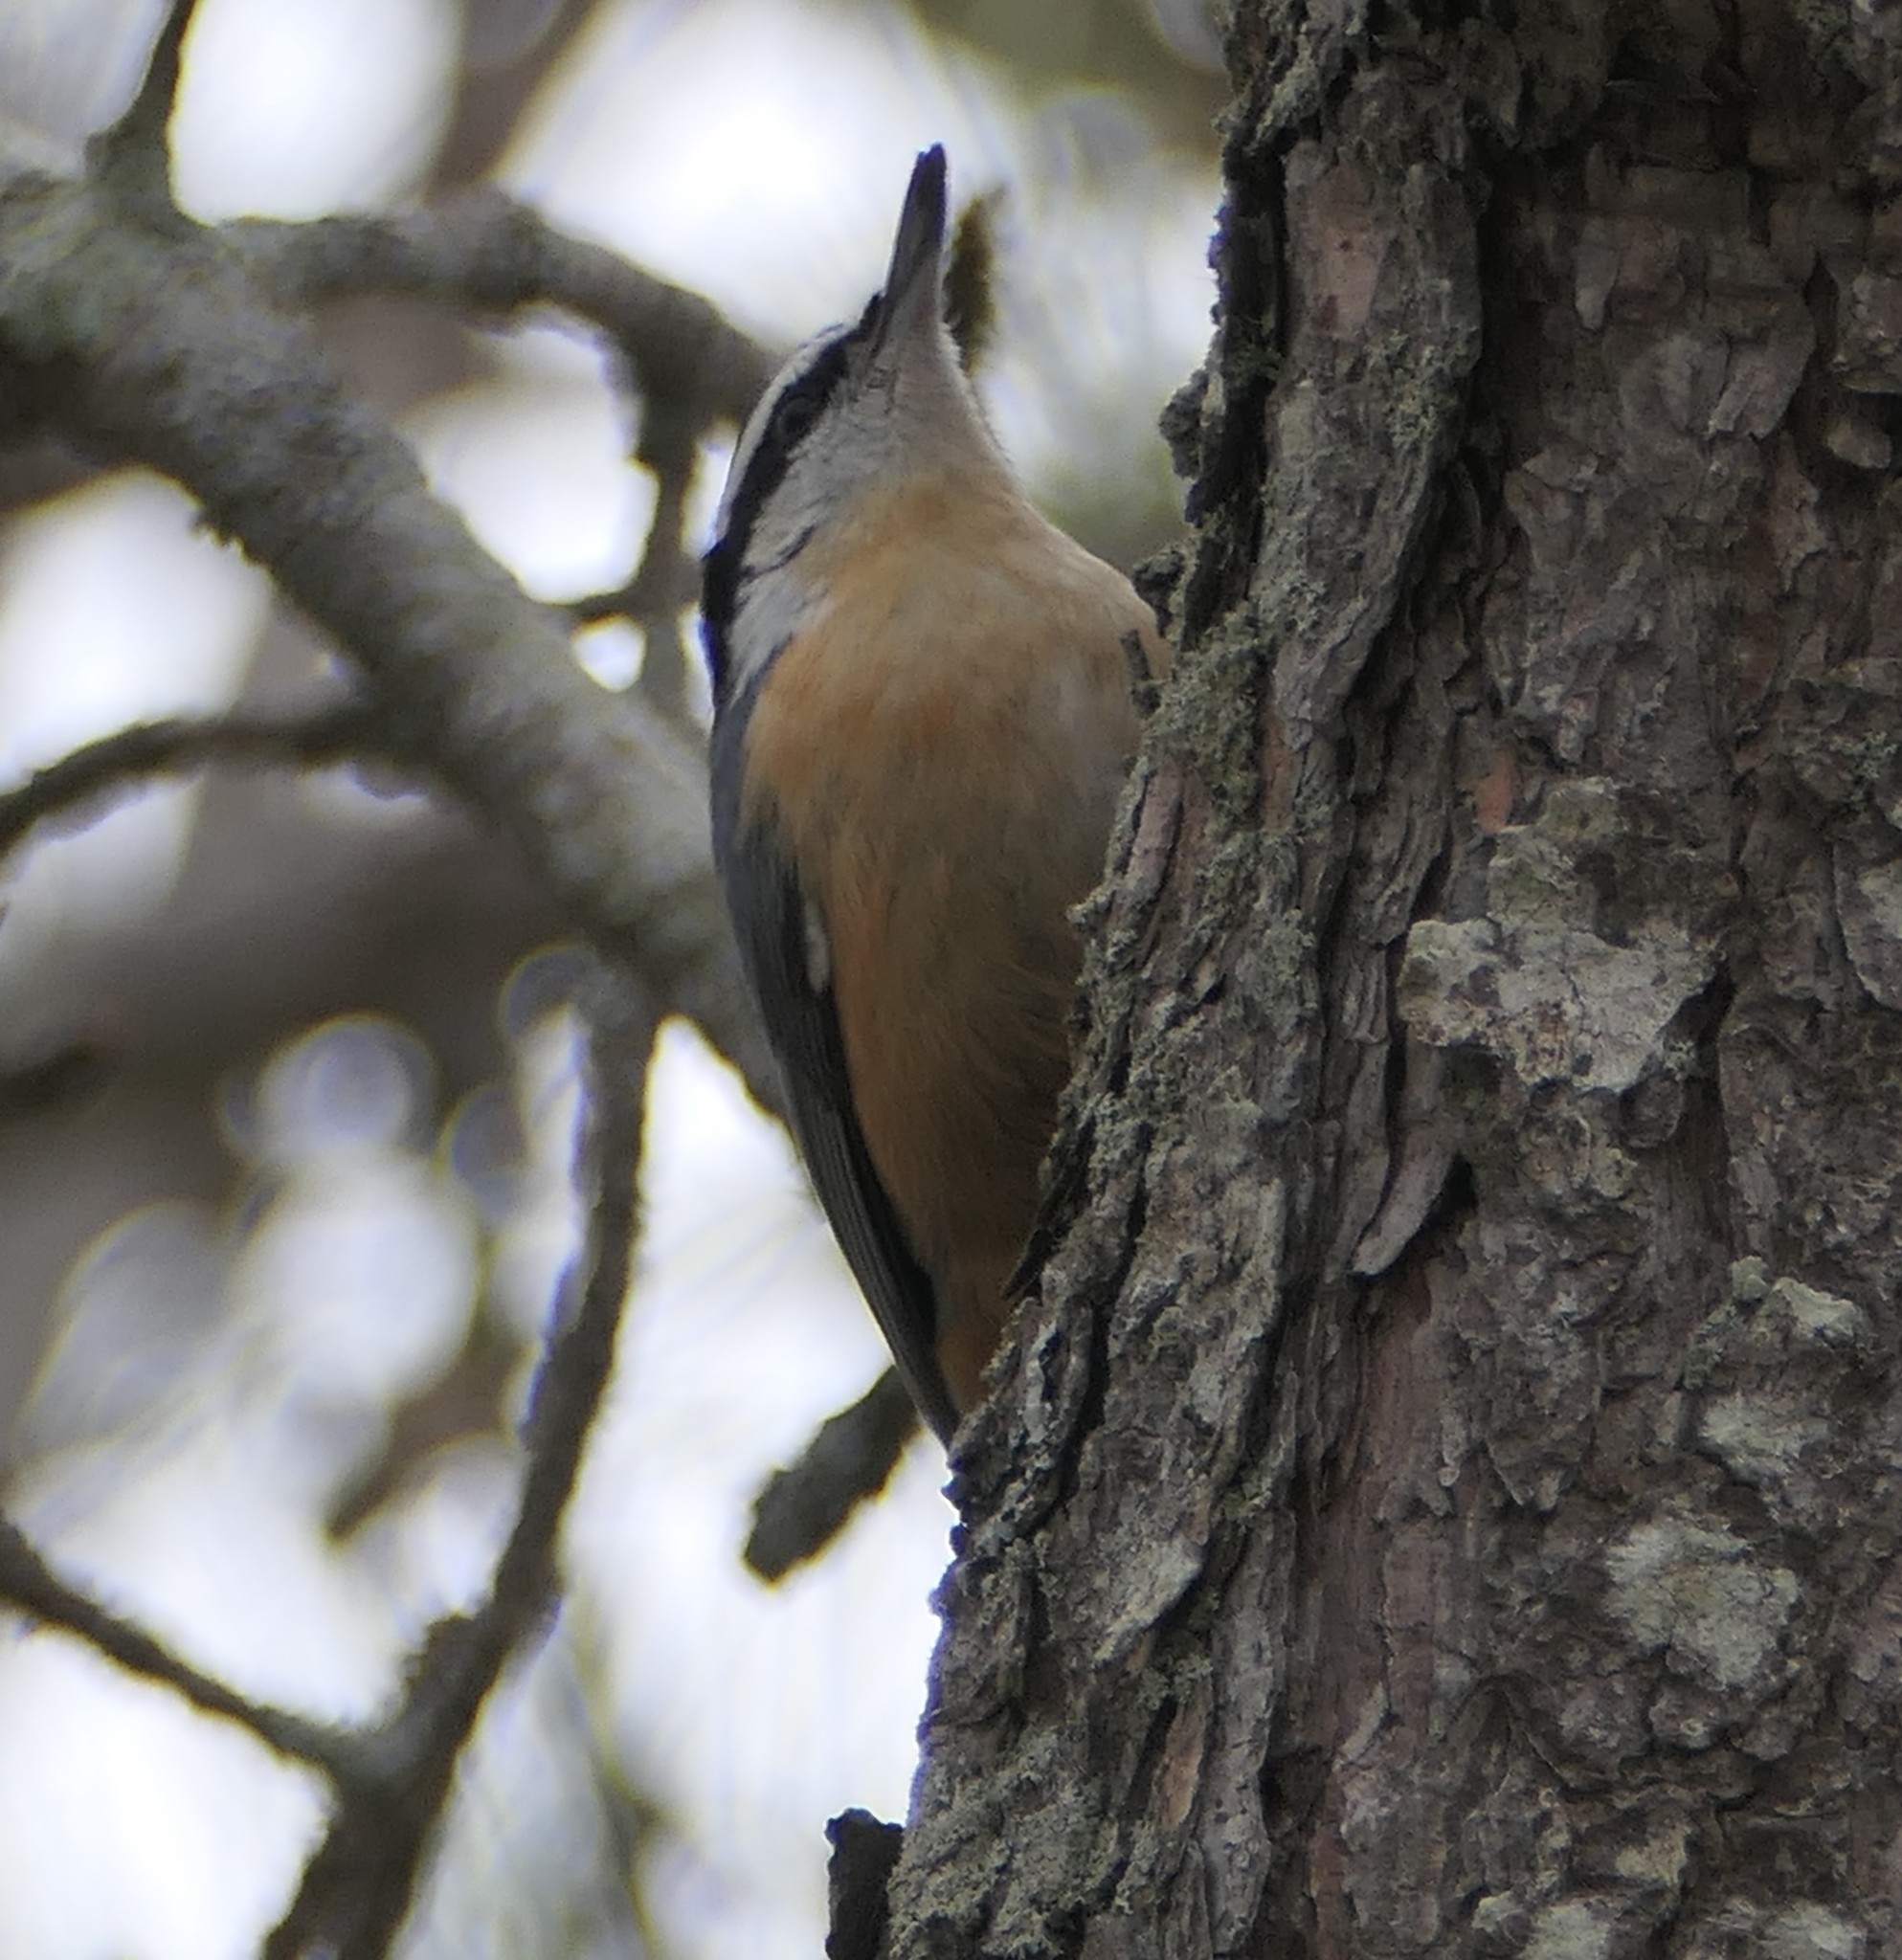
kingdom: Animalia
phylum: Chordata
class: Aves
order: Passeriformes
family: Sittidae
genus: Sitta
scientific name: Sitta canadensis
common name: Red-breasted nuthatch
